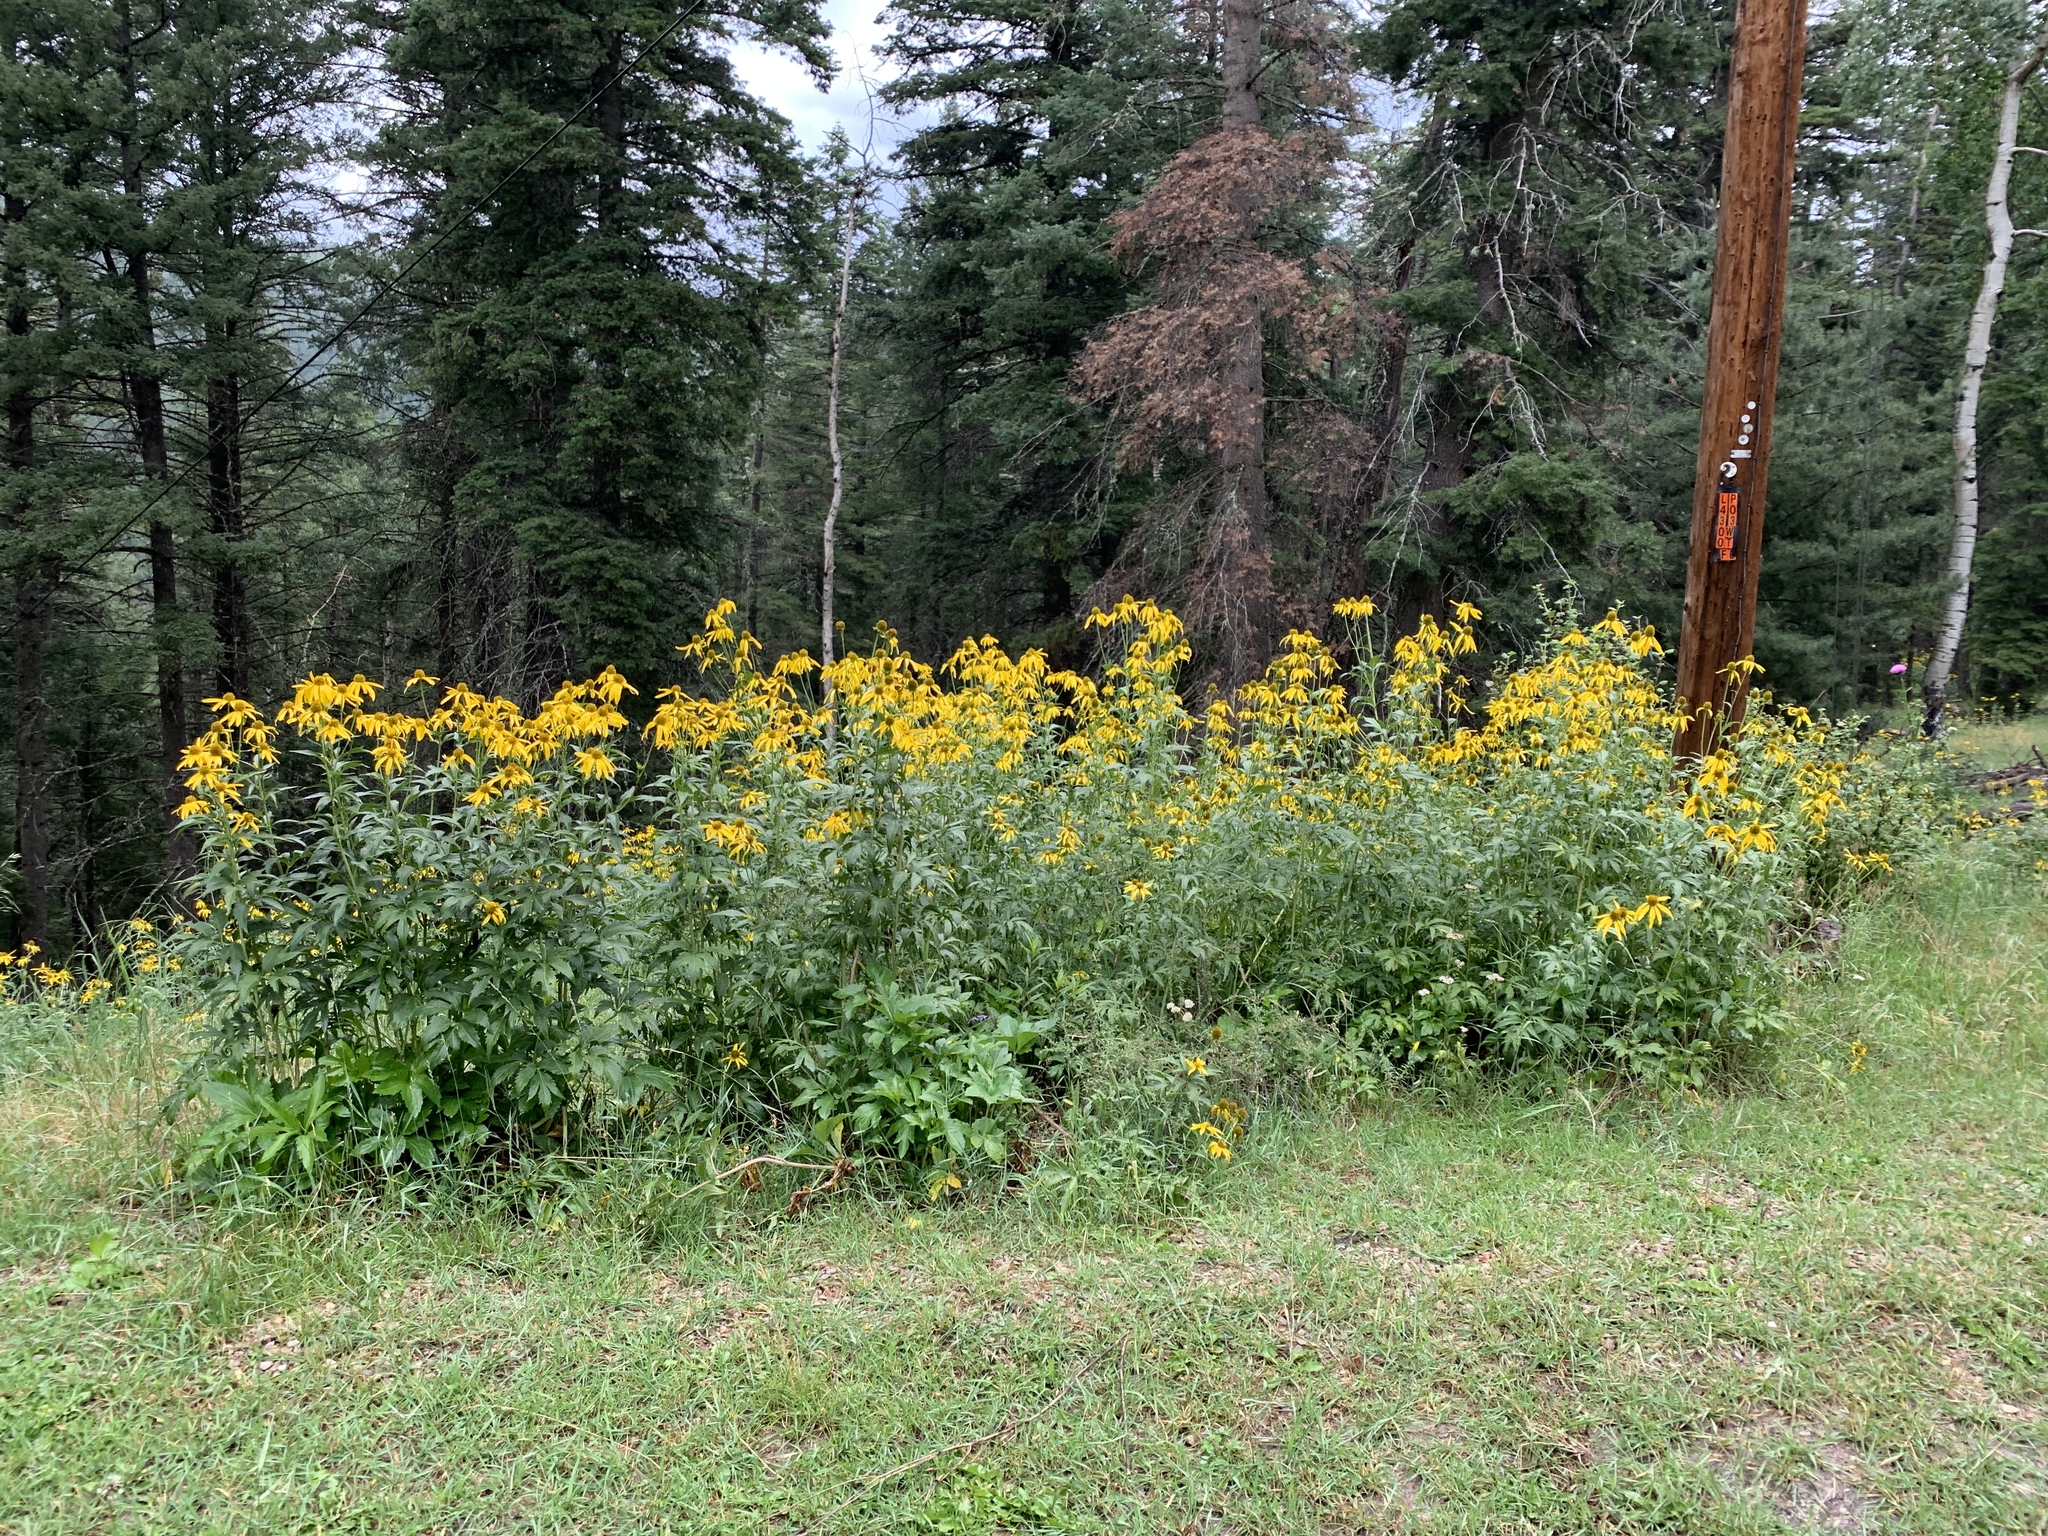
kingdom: Plantae
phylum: Tracheophyta
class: Magnoliopsida
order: Asterales
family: Asteraceae
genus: Rudbeckia
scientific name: Rudbeckia laciniata
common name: Coneflower
